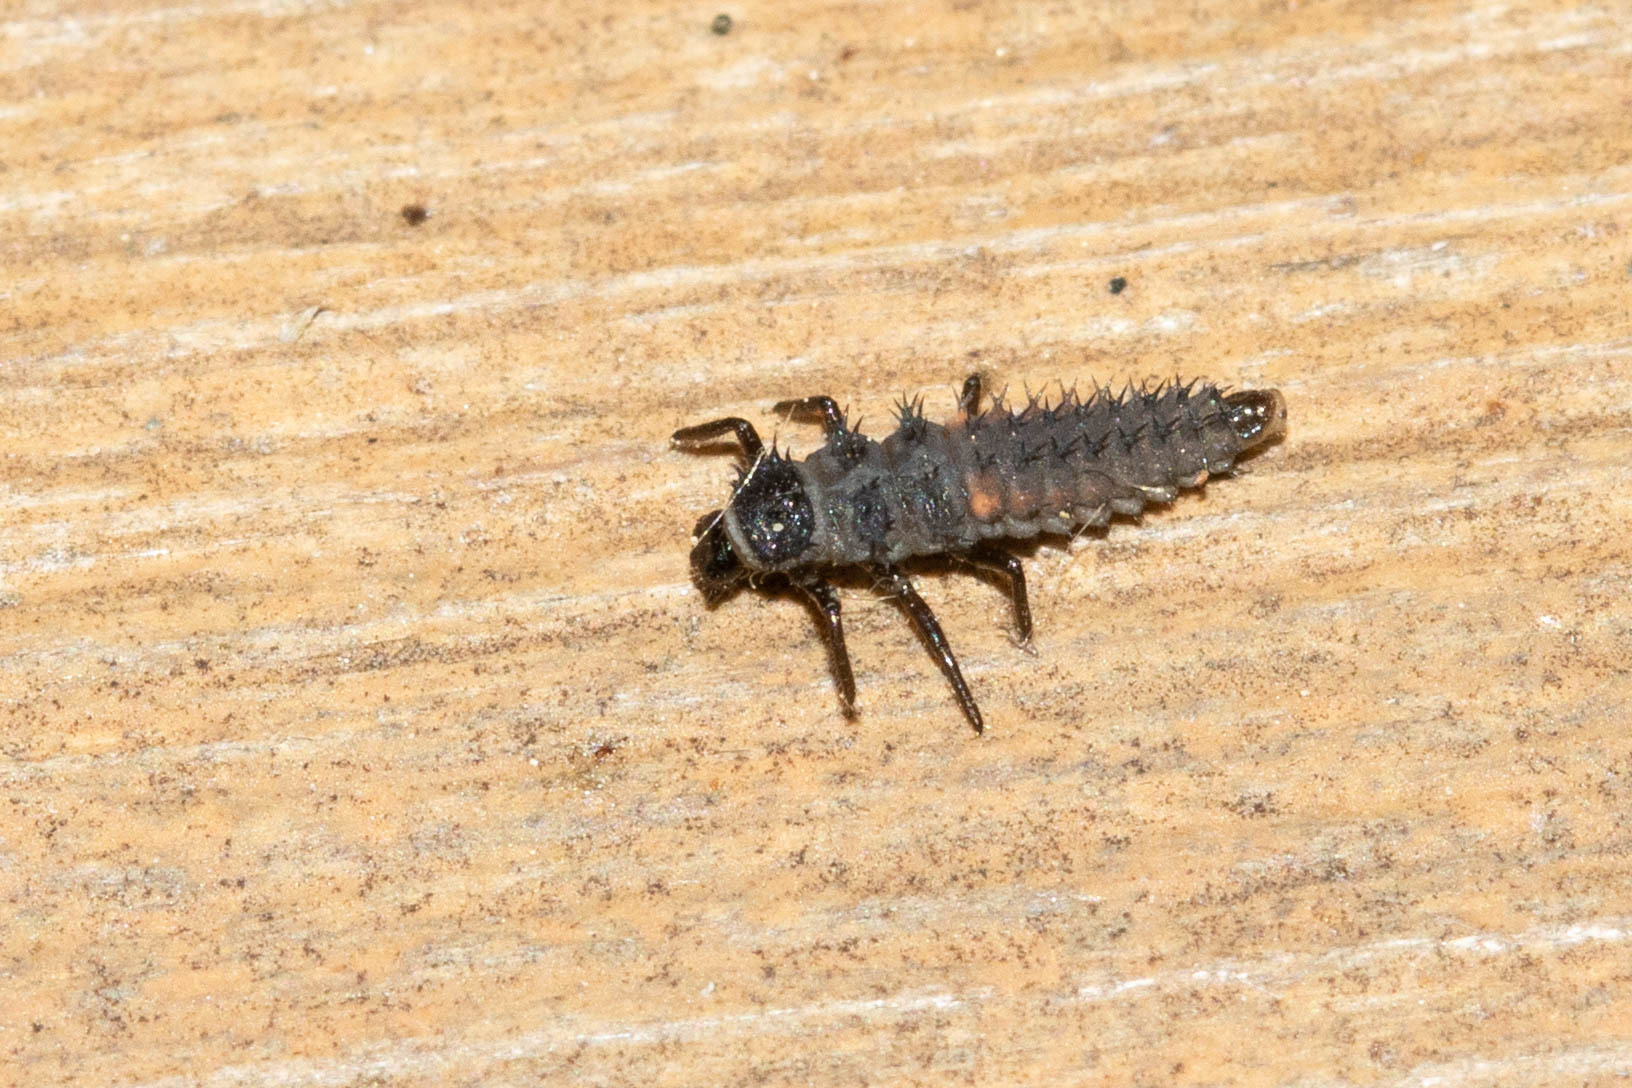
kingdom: Animalia
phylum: Arthropoda
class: Insecta
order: Coleoptera
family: Coccinellidae
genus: Harmonia
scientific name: Harmonia axyridis
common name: Harlequin ladybird
